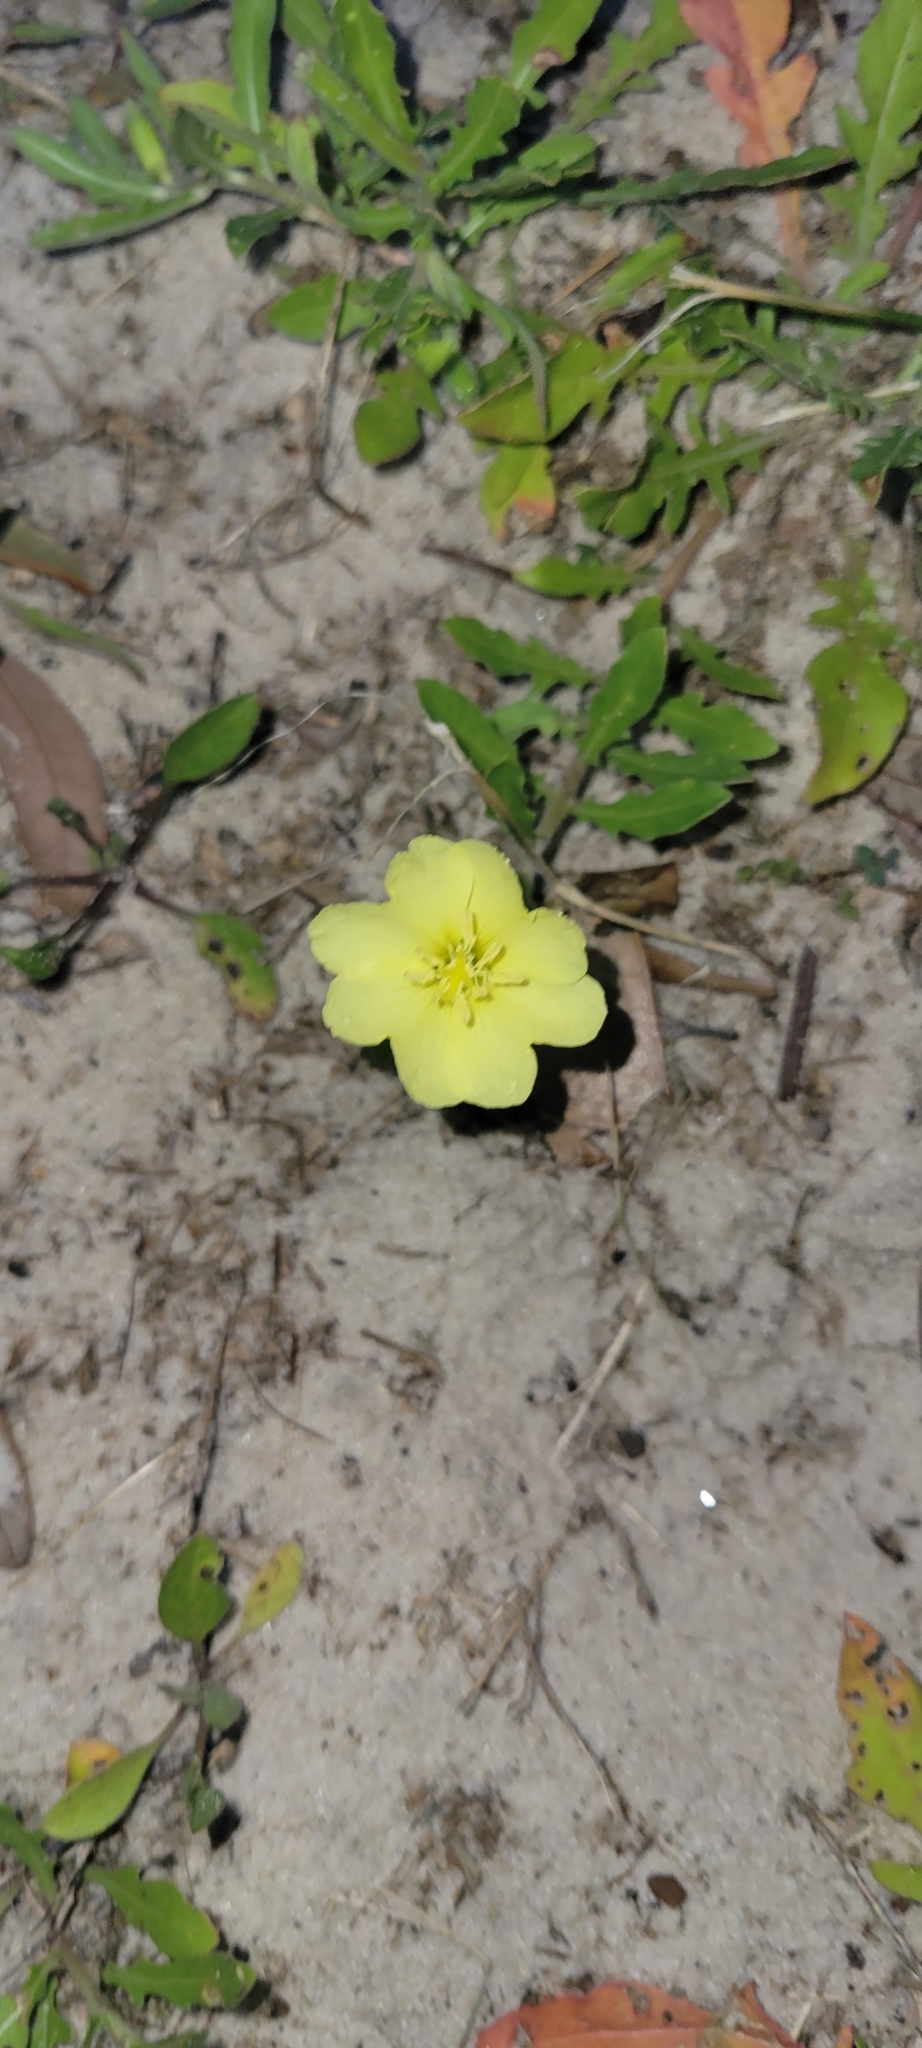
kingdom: Plantae
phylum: Tracheophyta
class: Magnoliopsida
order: Myrtales
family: Onagraceae
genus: Oenothera
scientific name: Oenothera humifusa
